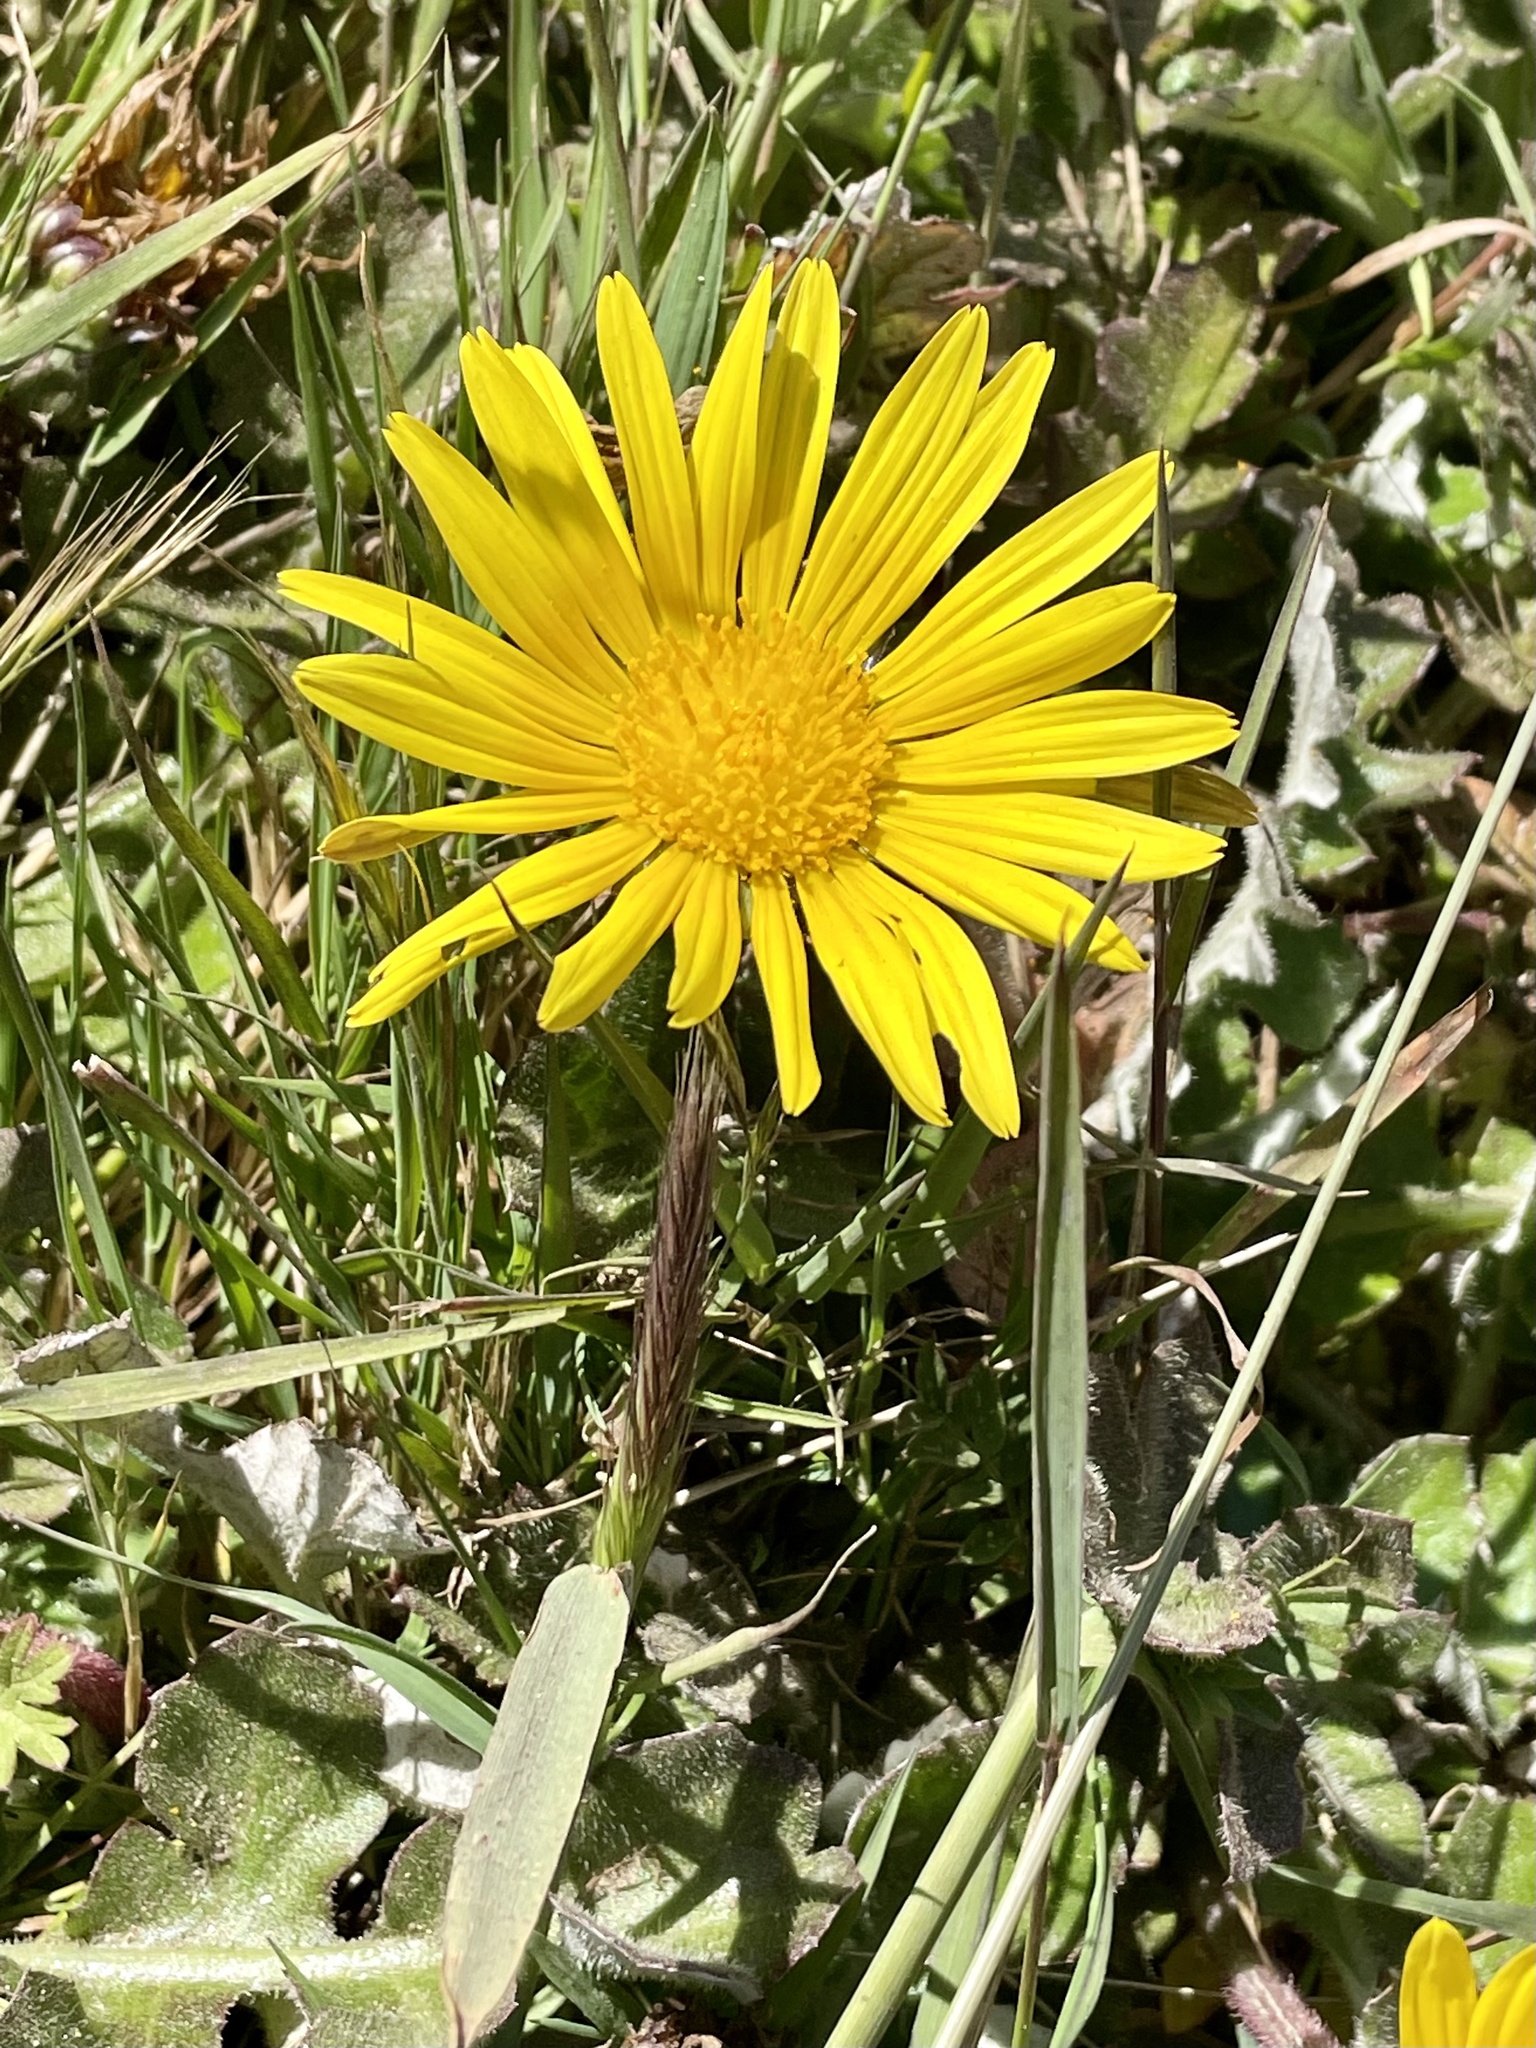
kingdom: Plantae
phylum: Tracheophyta
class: Magnoliopsida
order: Asterales
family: Asteraceae
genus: Arctotheca
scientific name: Arctotheca prostrata
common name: Capeweed
